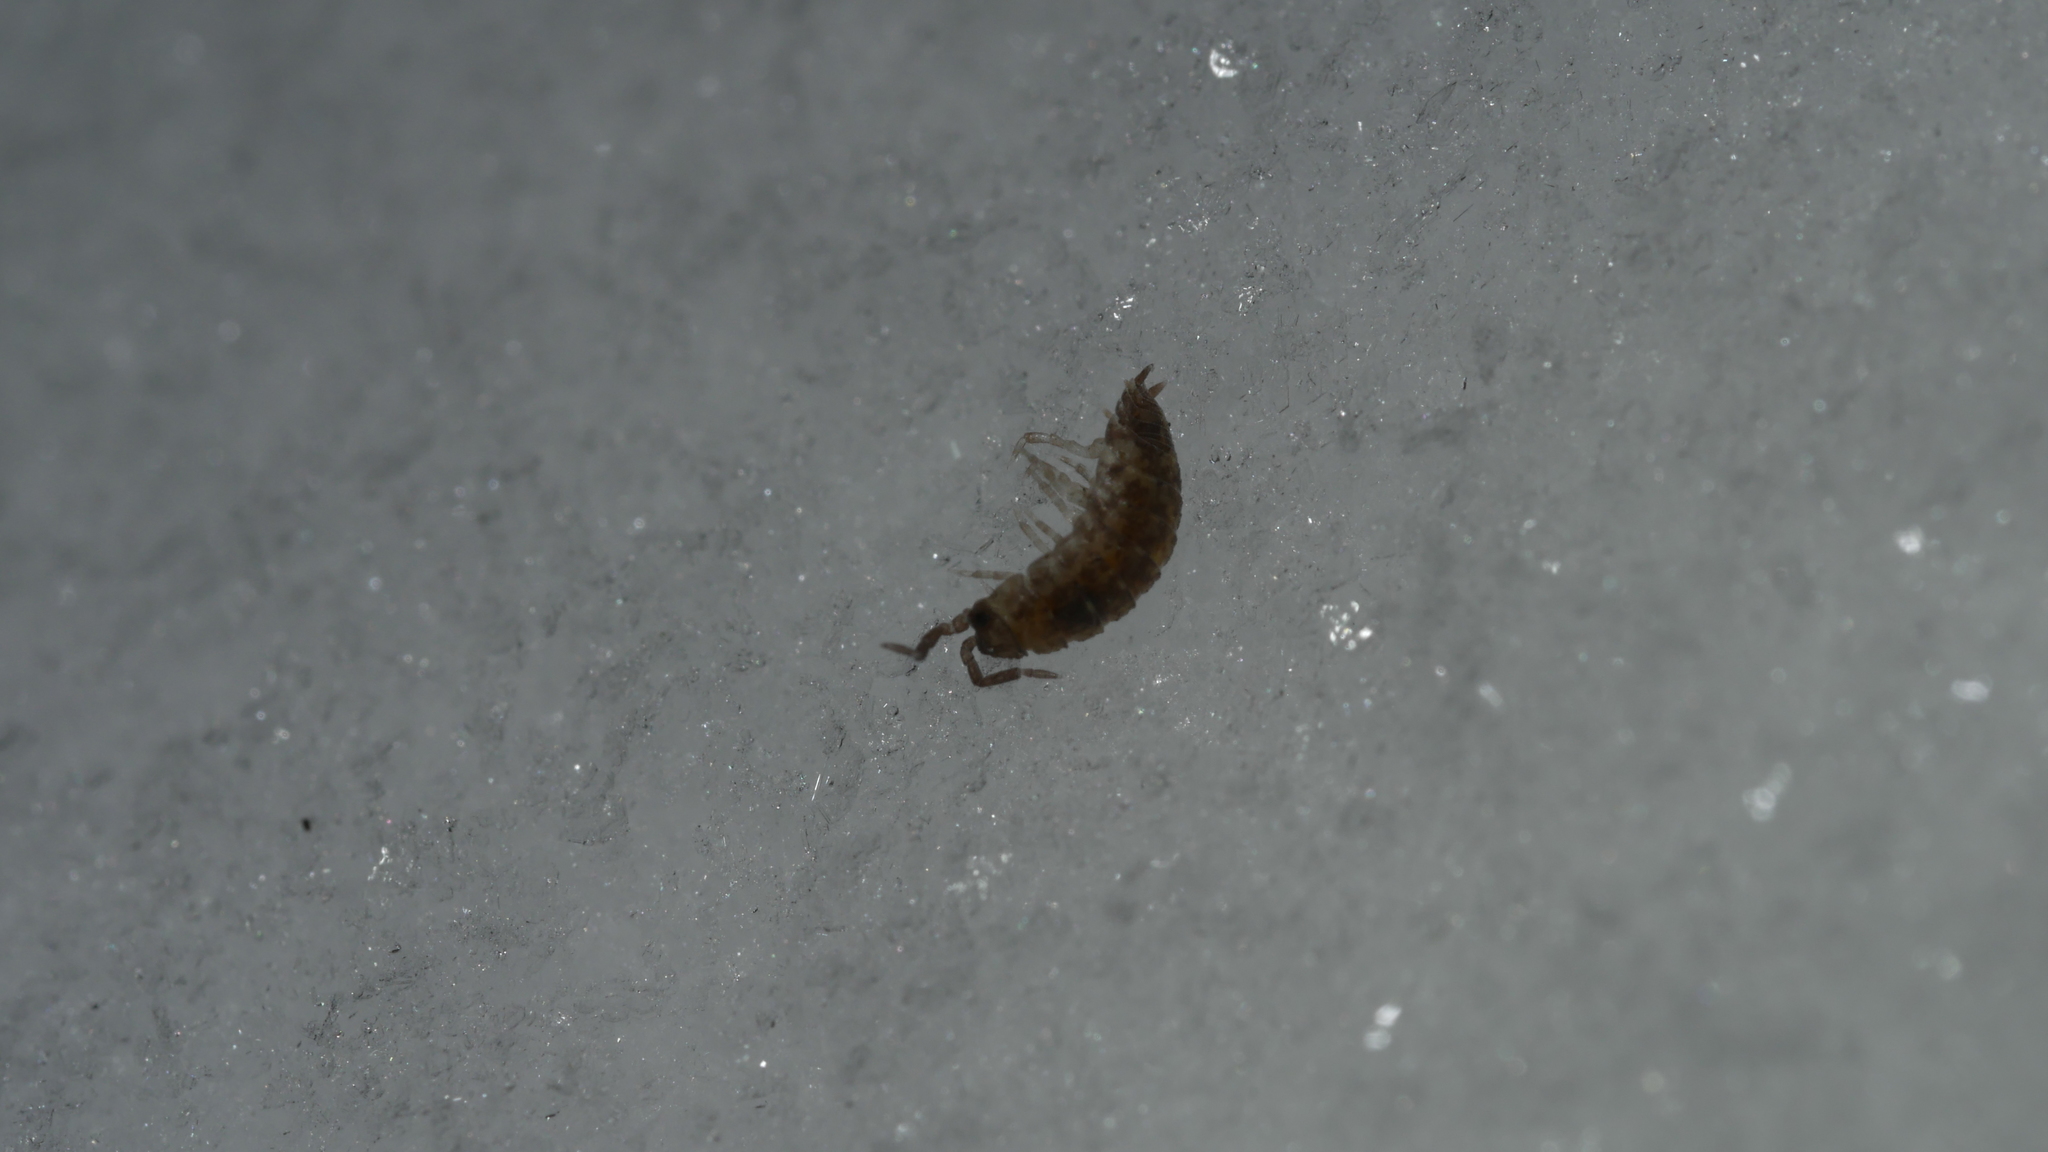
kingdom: Animalia
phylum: Arthropoda
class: Malacostraca
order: Isopoda
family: Porcellionidae
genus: Porcellio
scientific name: Porcellio scaber
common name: Common rough woodlouse
